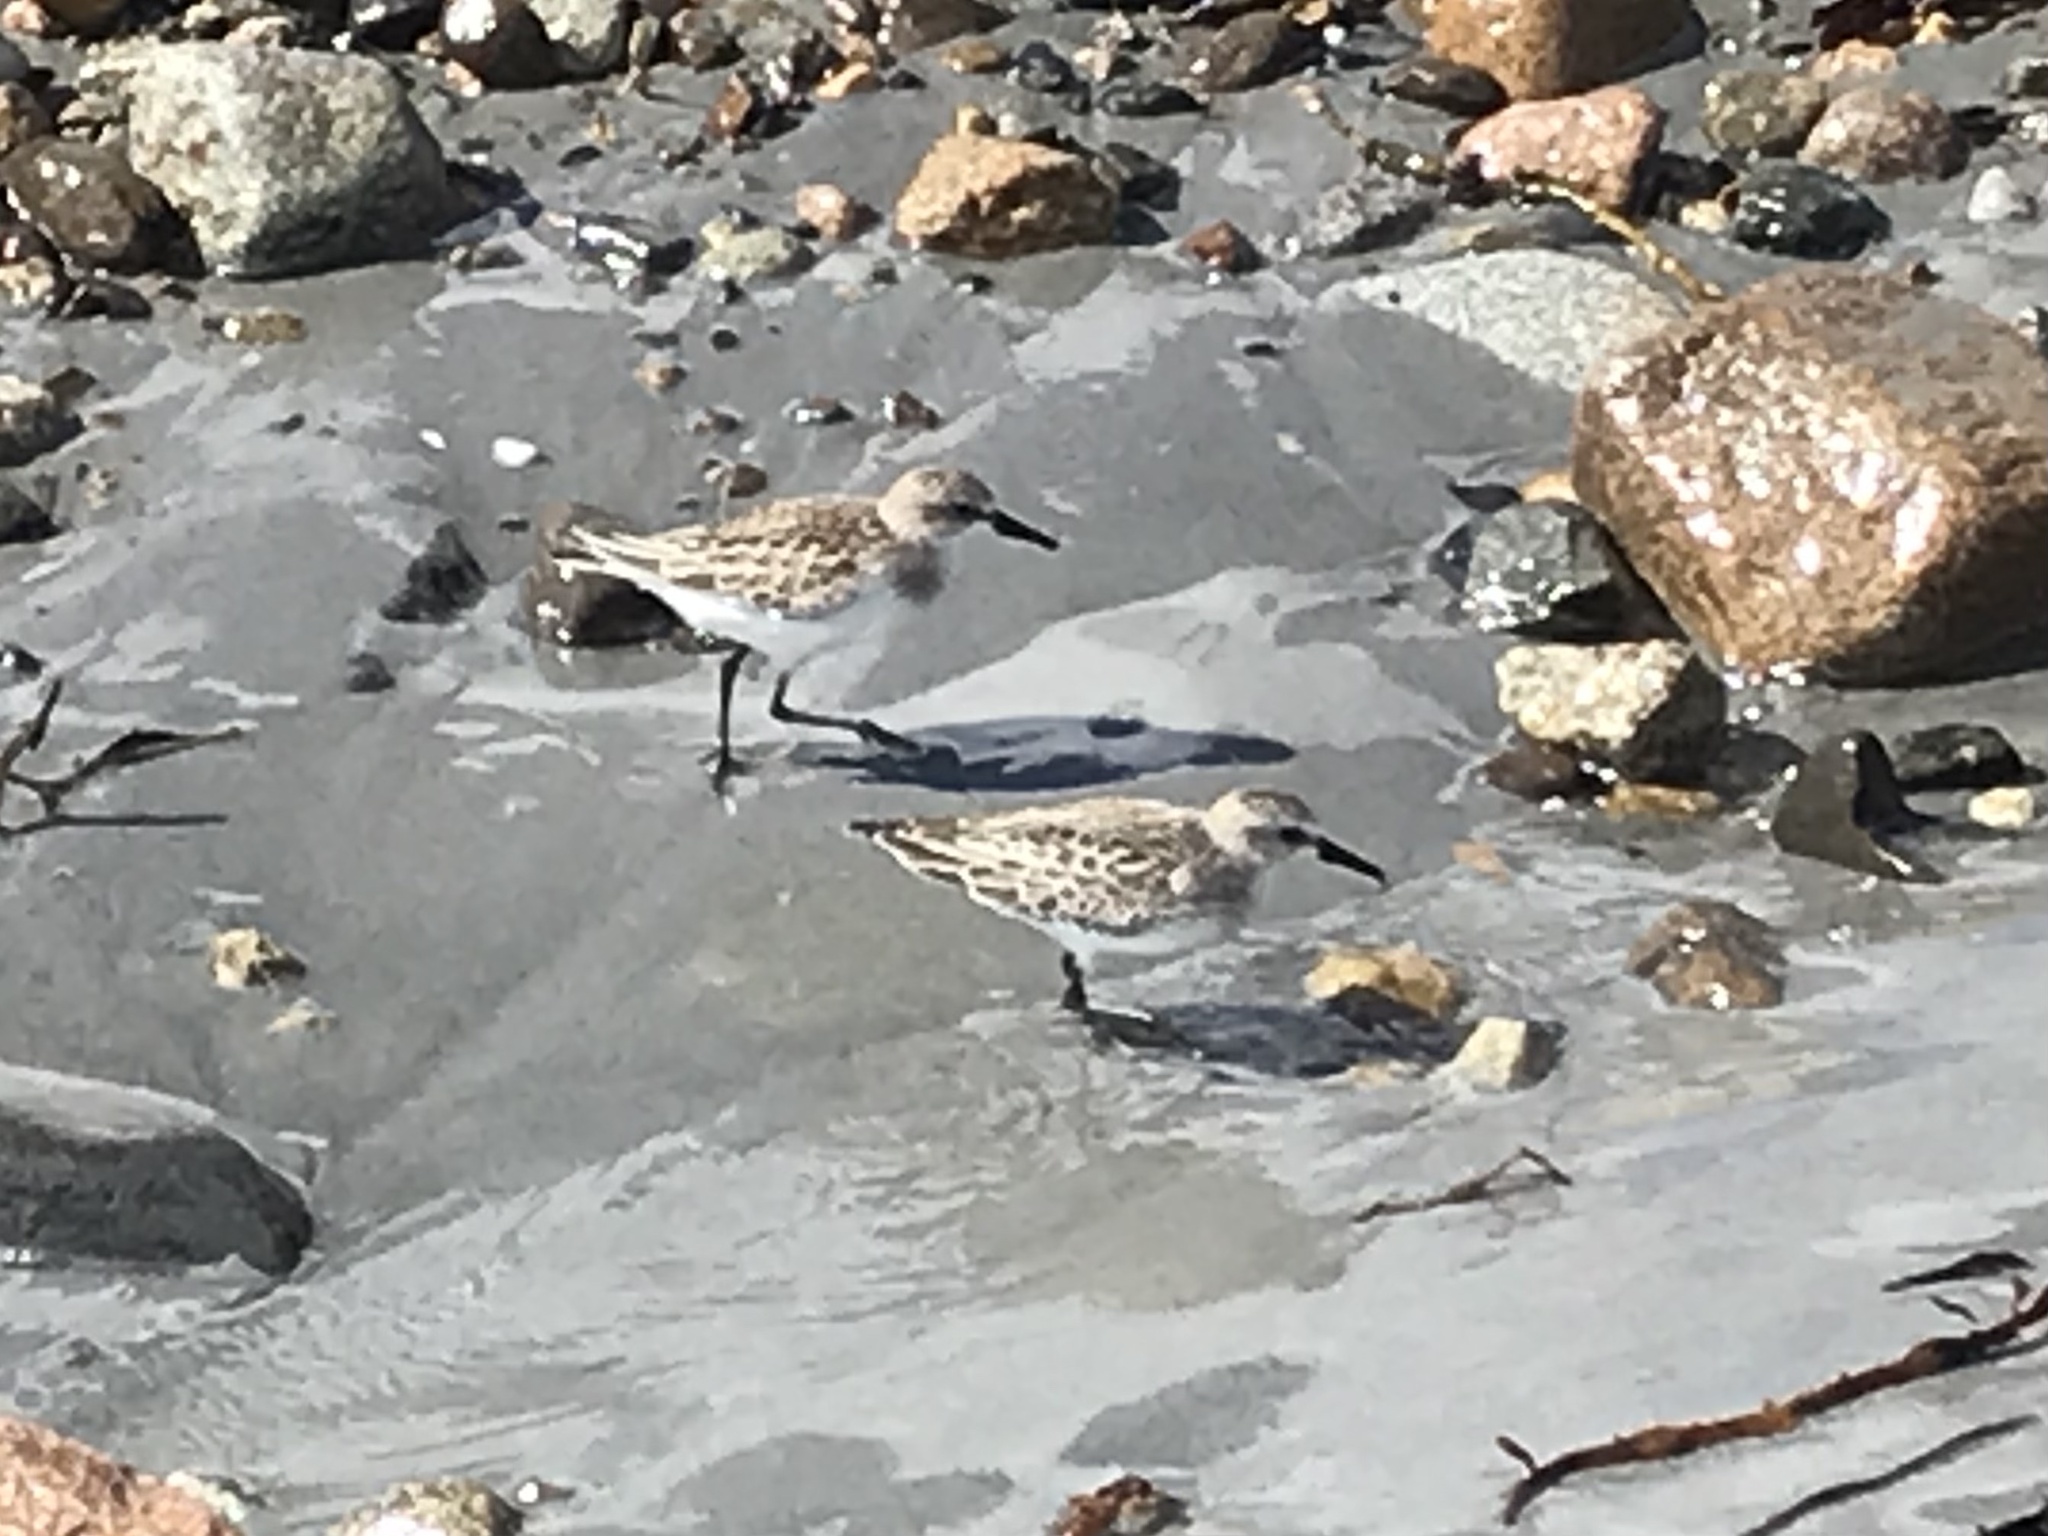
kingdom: Animalia
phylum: Chordata
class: Aves
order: Charadriiformes
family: Scolopacidae
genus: Calidris
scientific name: Calidris pusilla
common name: Semipalmated sandpiper
